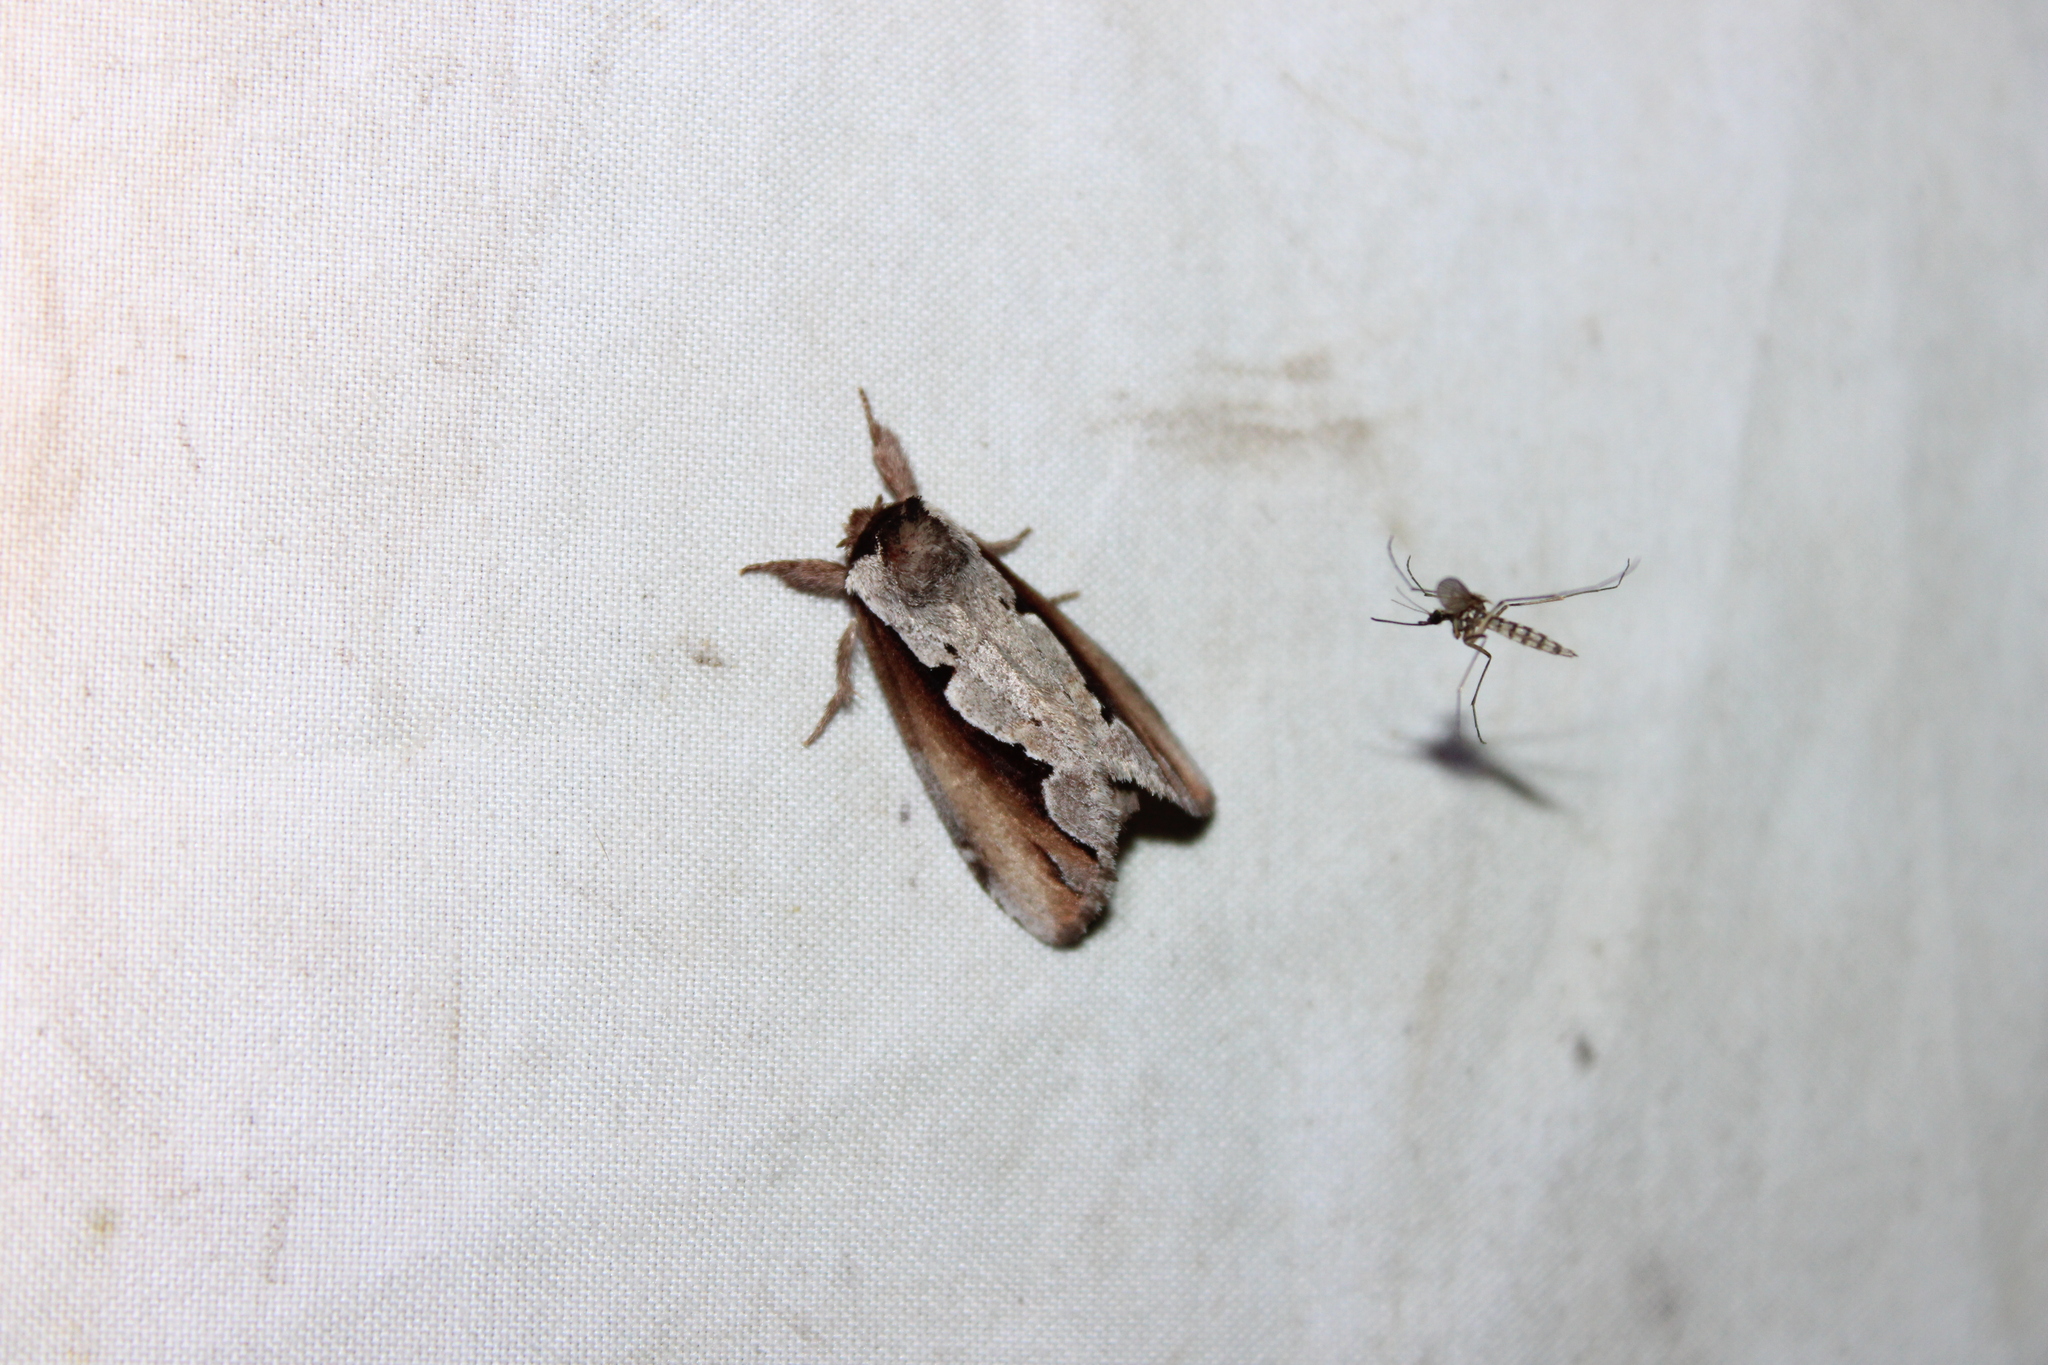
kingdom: Animalia
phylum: Arthropoda
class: Insecta
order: Lepidoptera
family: Notodontidae
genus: Nerice
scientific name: Nerice bidentata
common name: Double-toothed prominent
